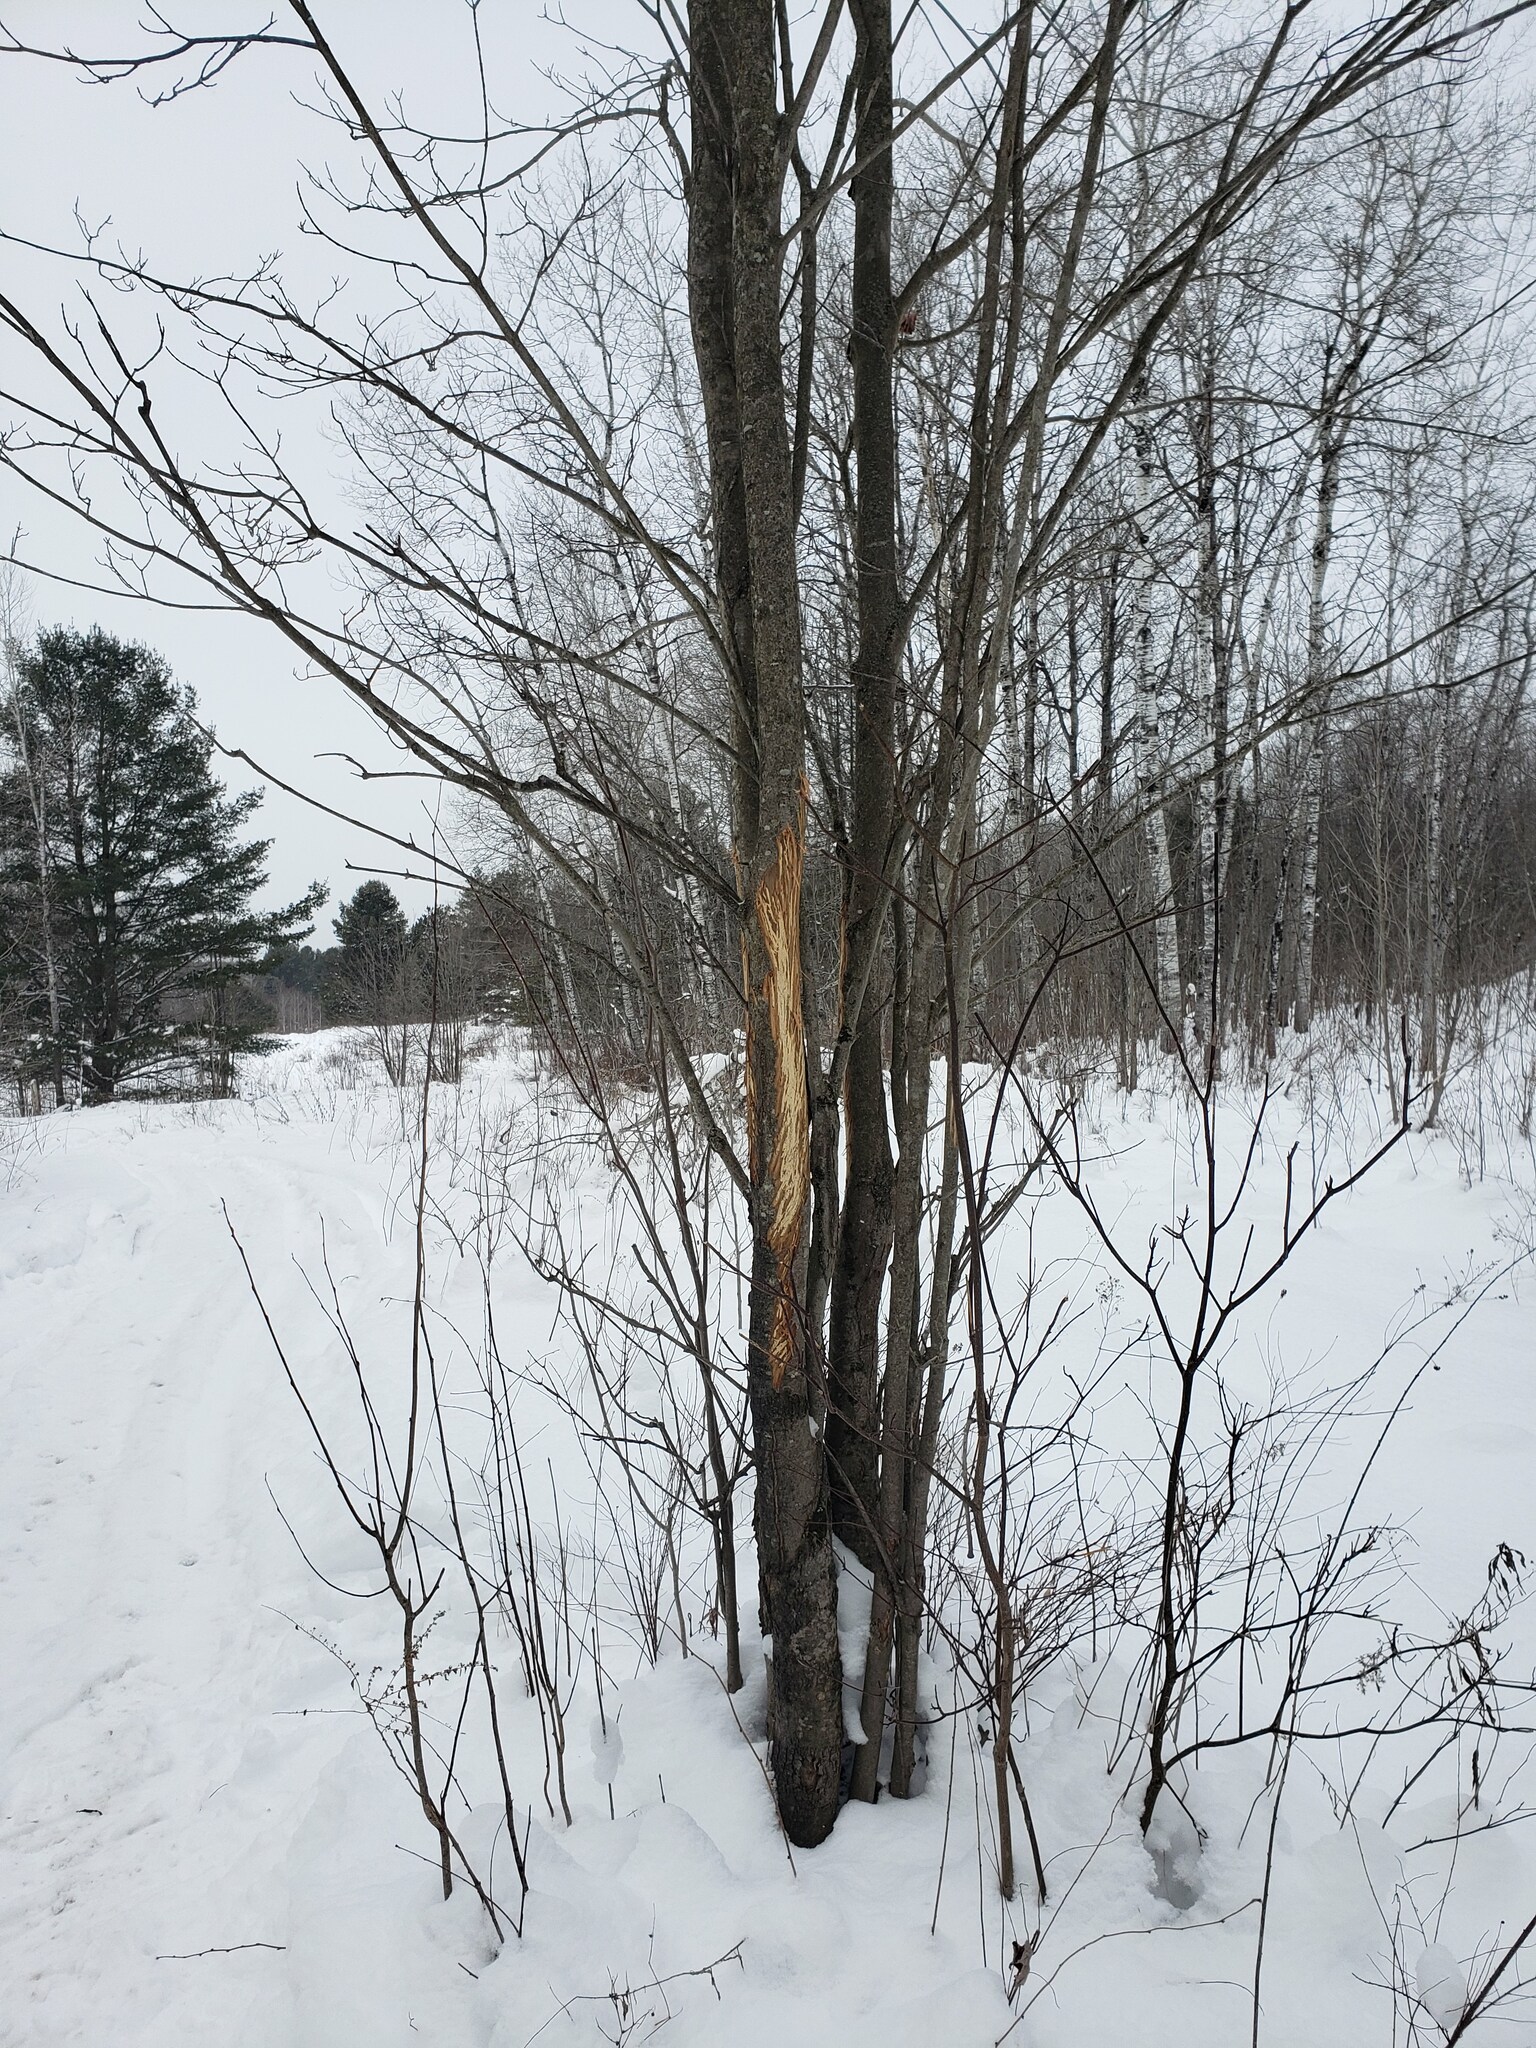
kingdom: Animalia
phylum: Chordata
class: Mammalia
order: Artiodactyla
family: Cervidae
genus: Odocoileus
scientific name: Odocoileus virginianus
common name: White-tailed deer
